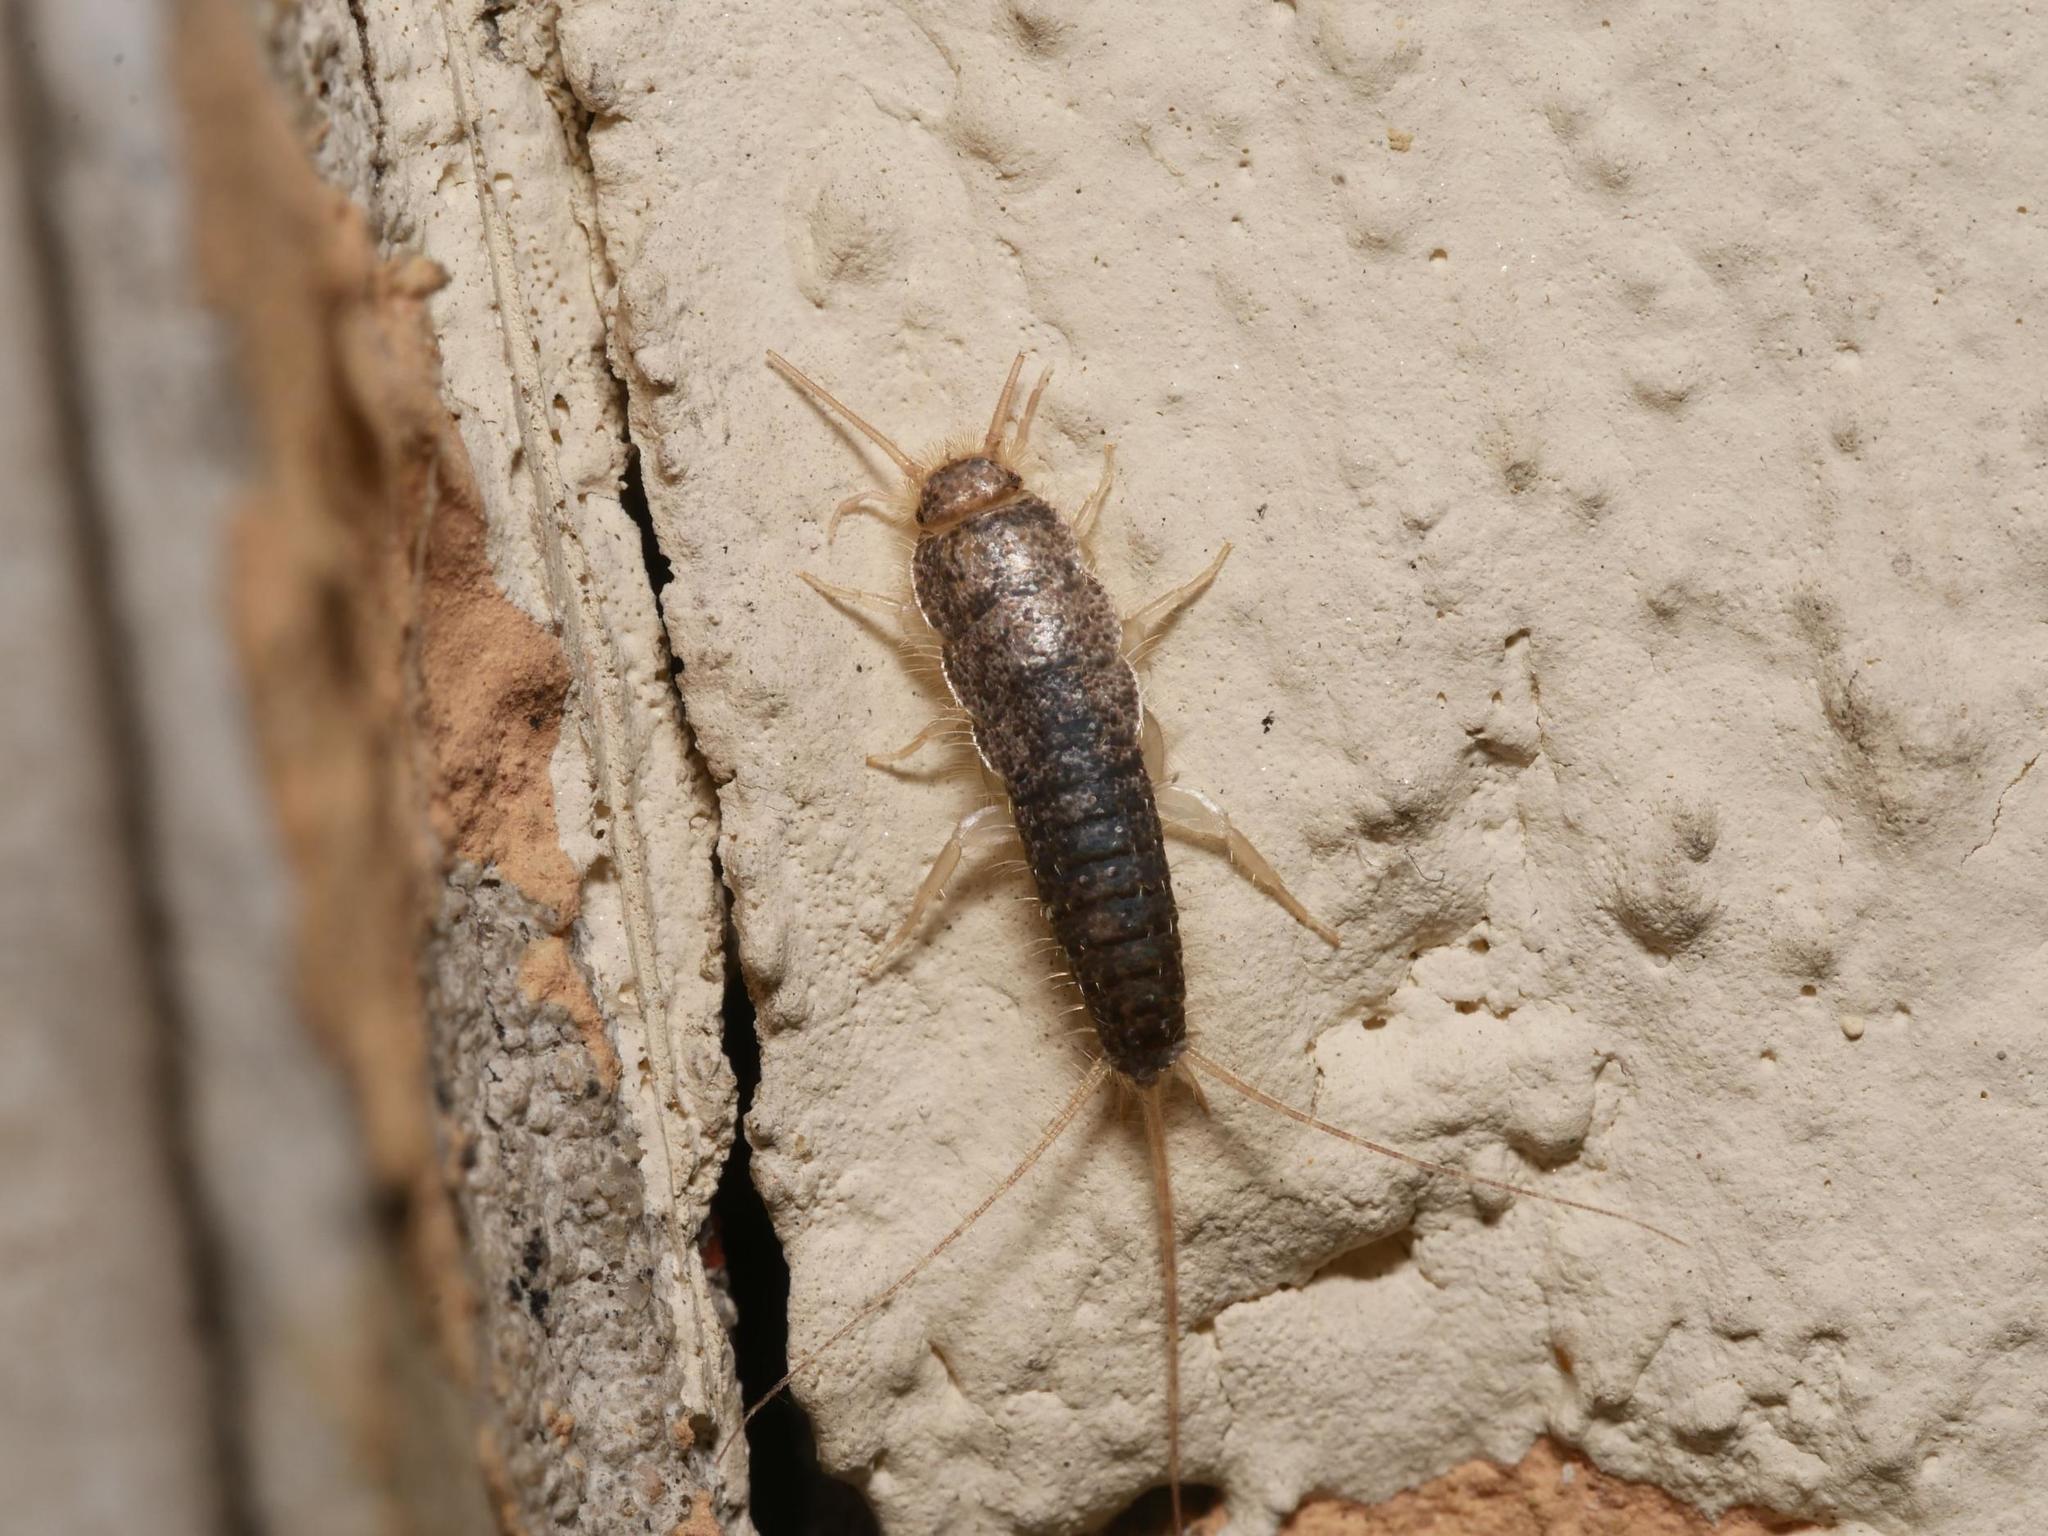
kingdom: Animalia
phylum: Arthropoda
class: Insecta
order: Zygentoma
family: Lepismatidae
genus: Ctenolepisma
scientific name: Ctenolepisma longicaudatum
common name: Silverfish
